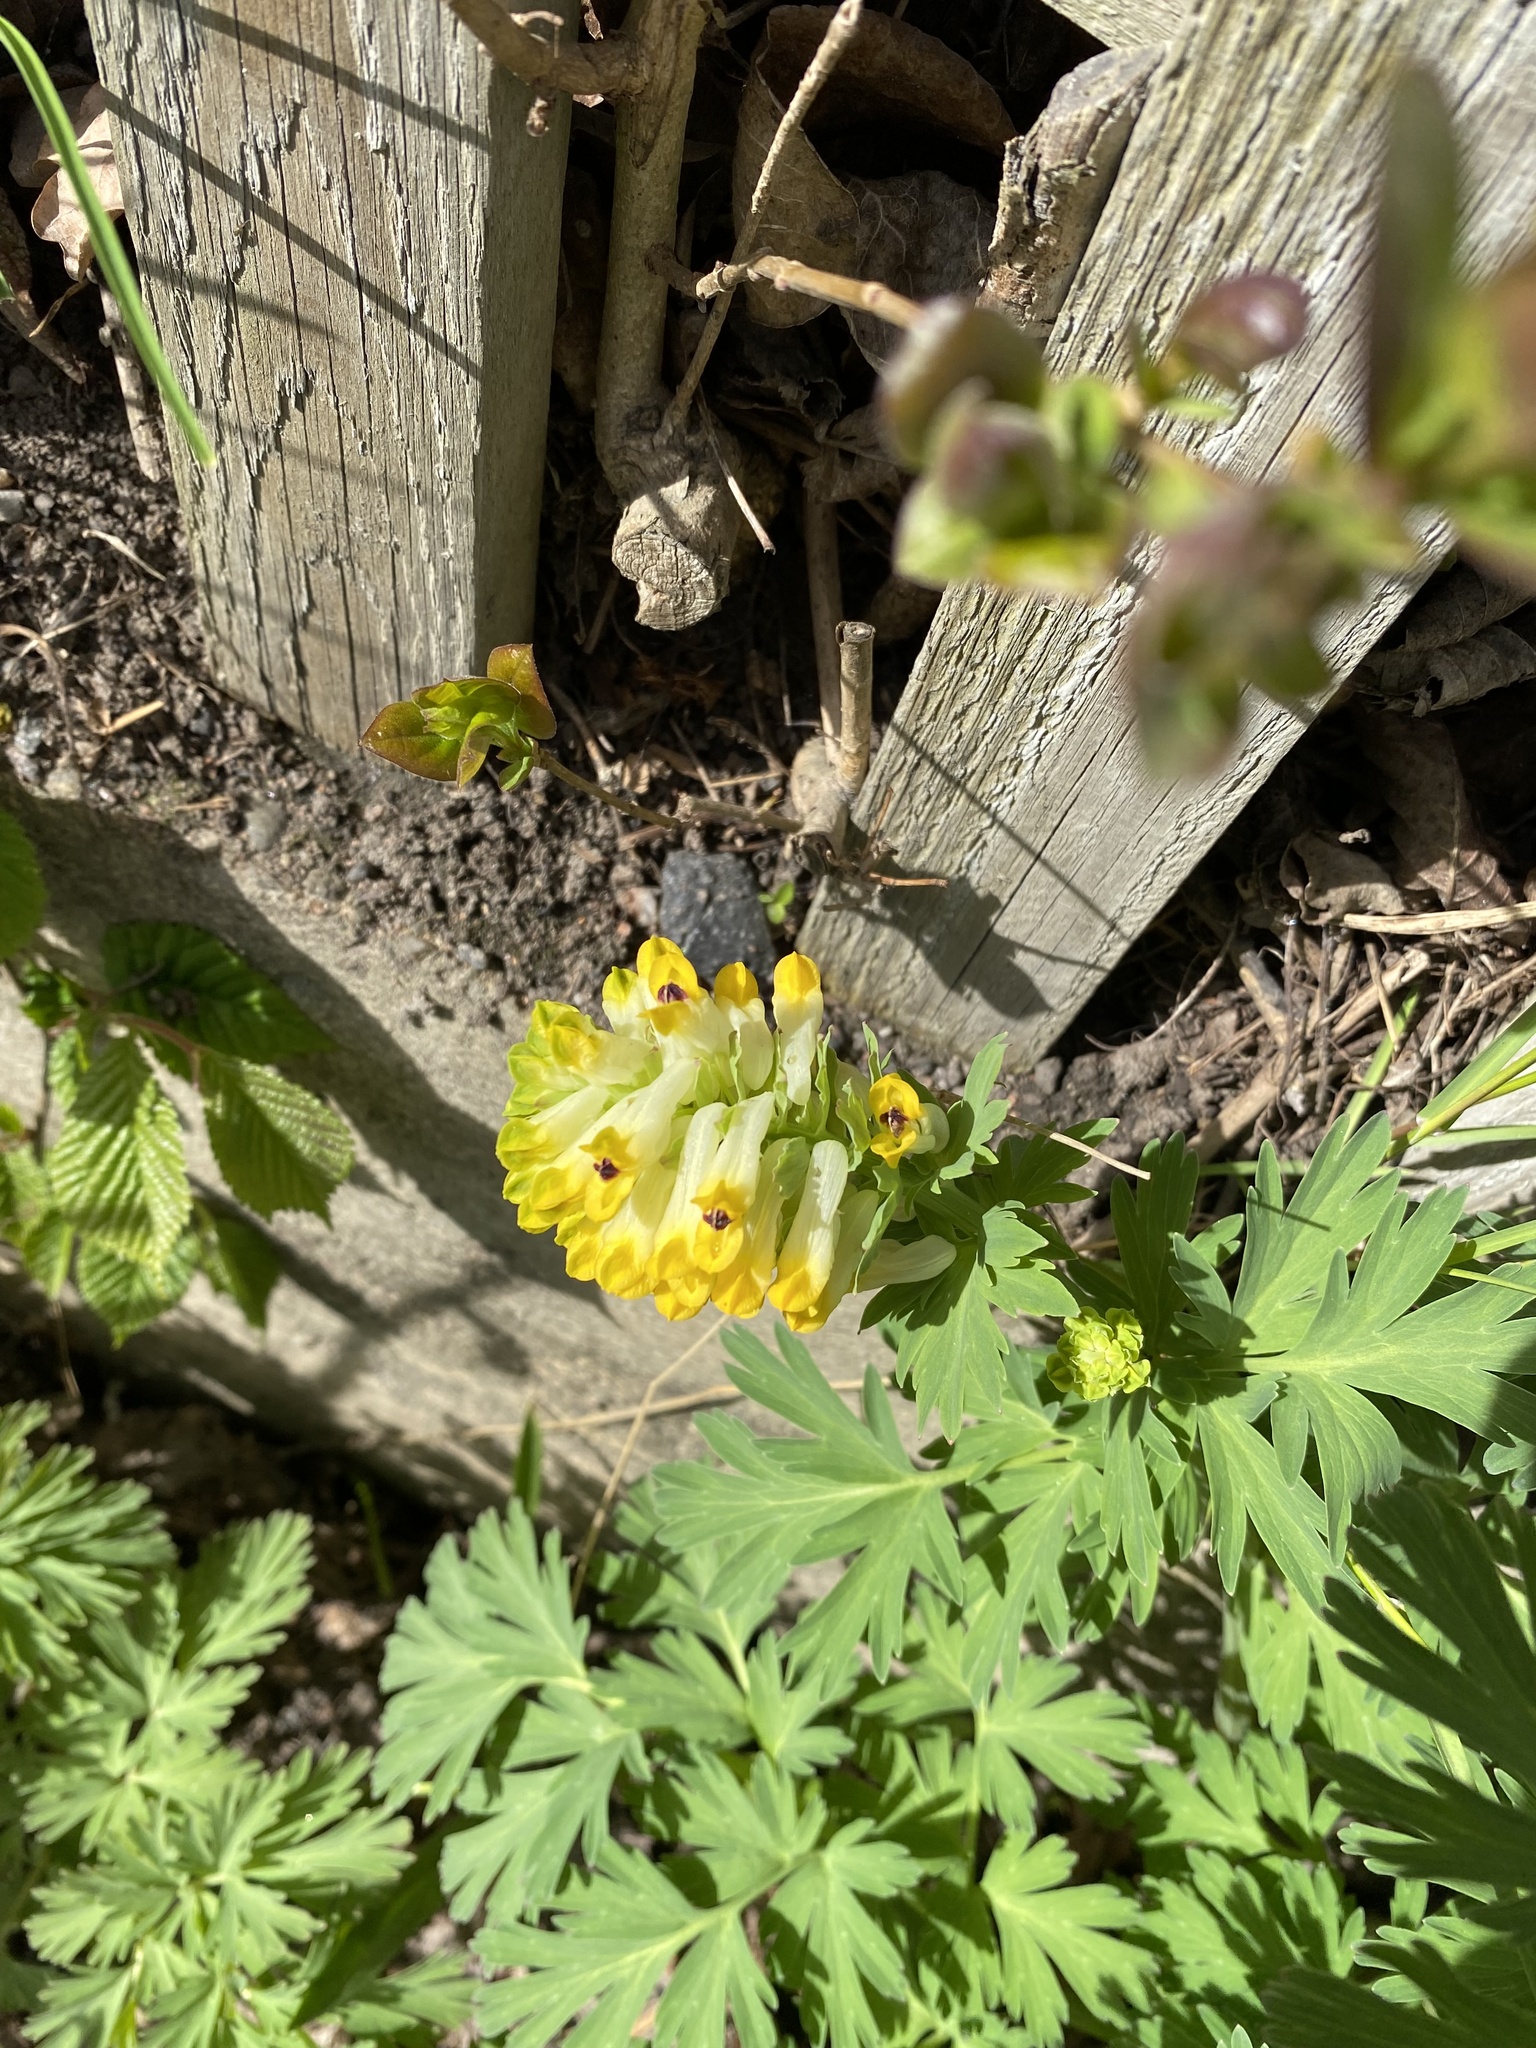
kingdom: Plantae
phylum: Tracheophyta
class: Magnoliopsida
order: Ranunculales
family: Papaveraceae
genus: Corydalis
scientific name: Corydalis nobilis
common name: Siberian corydalis
